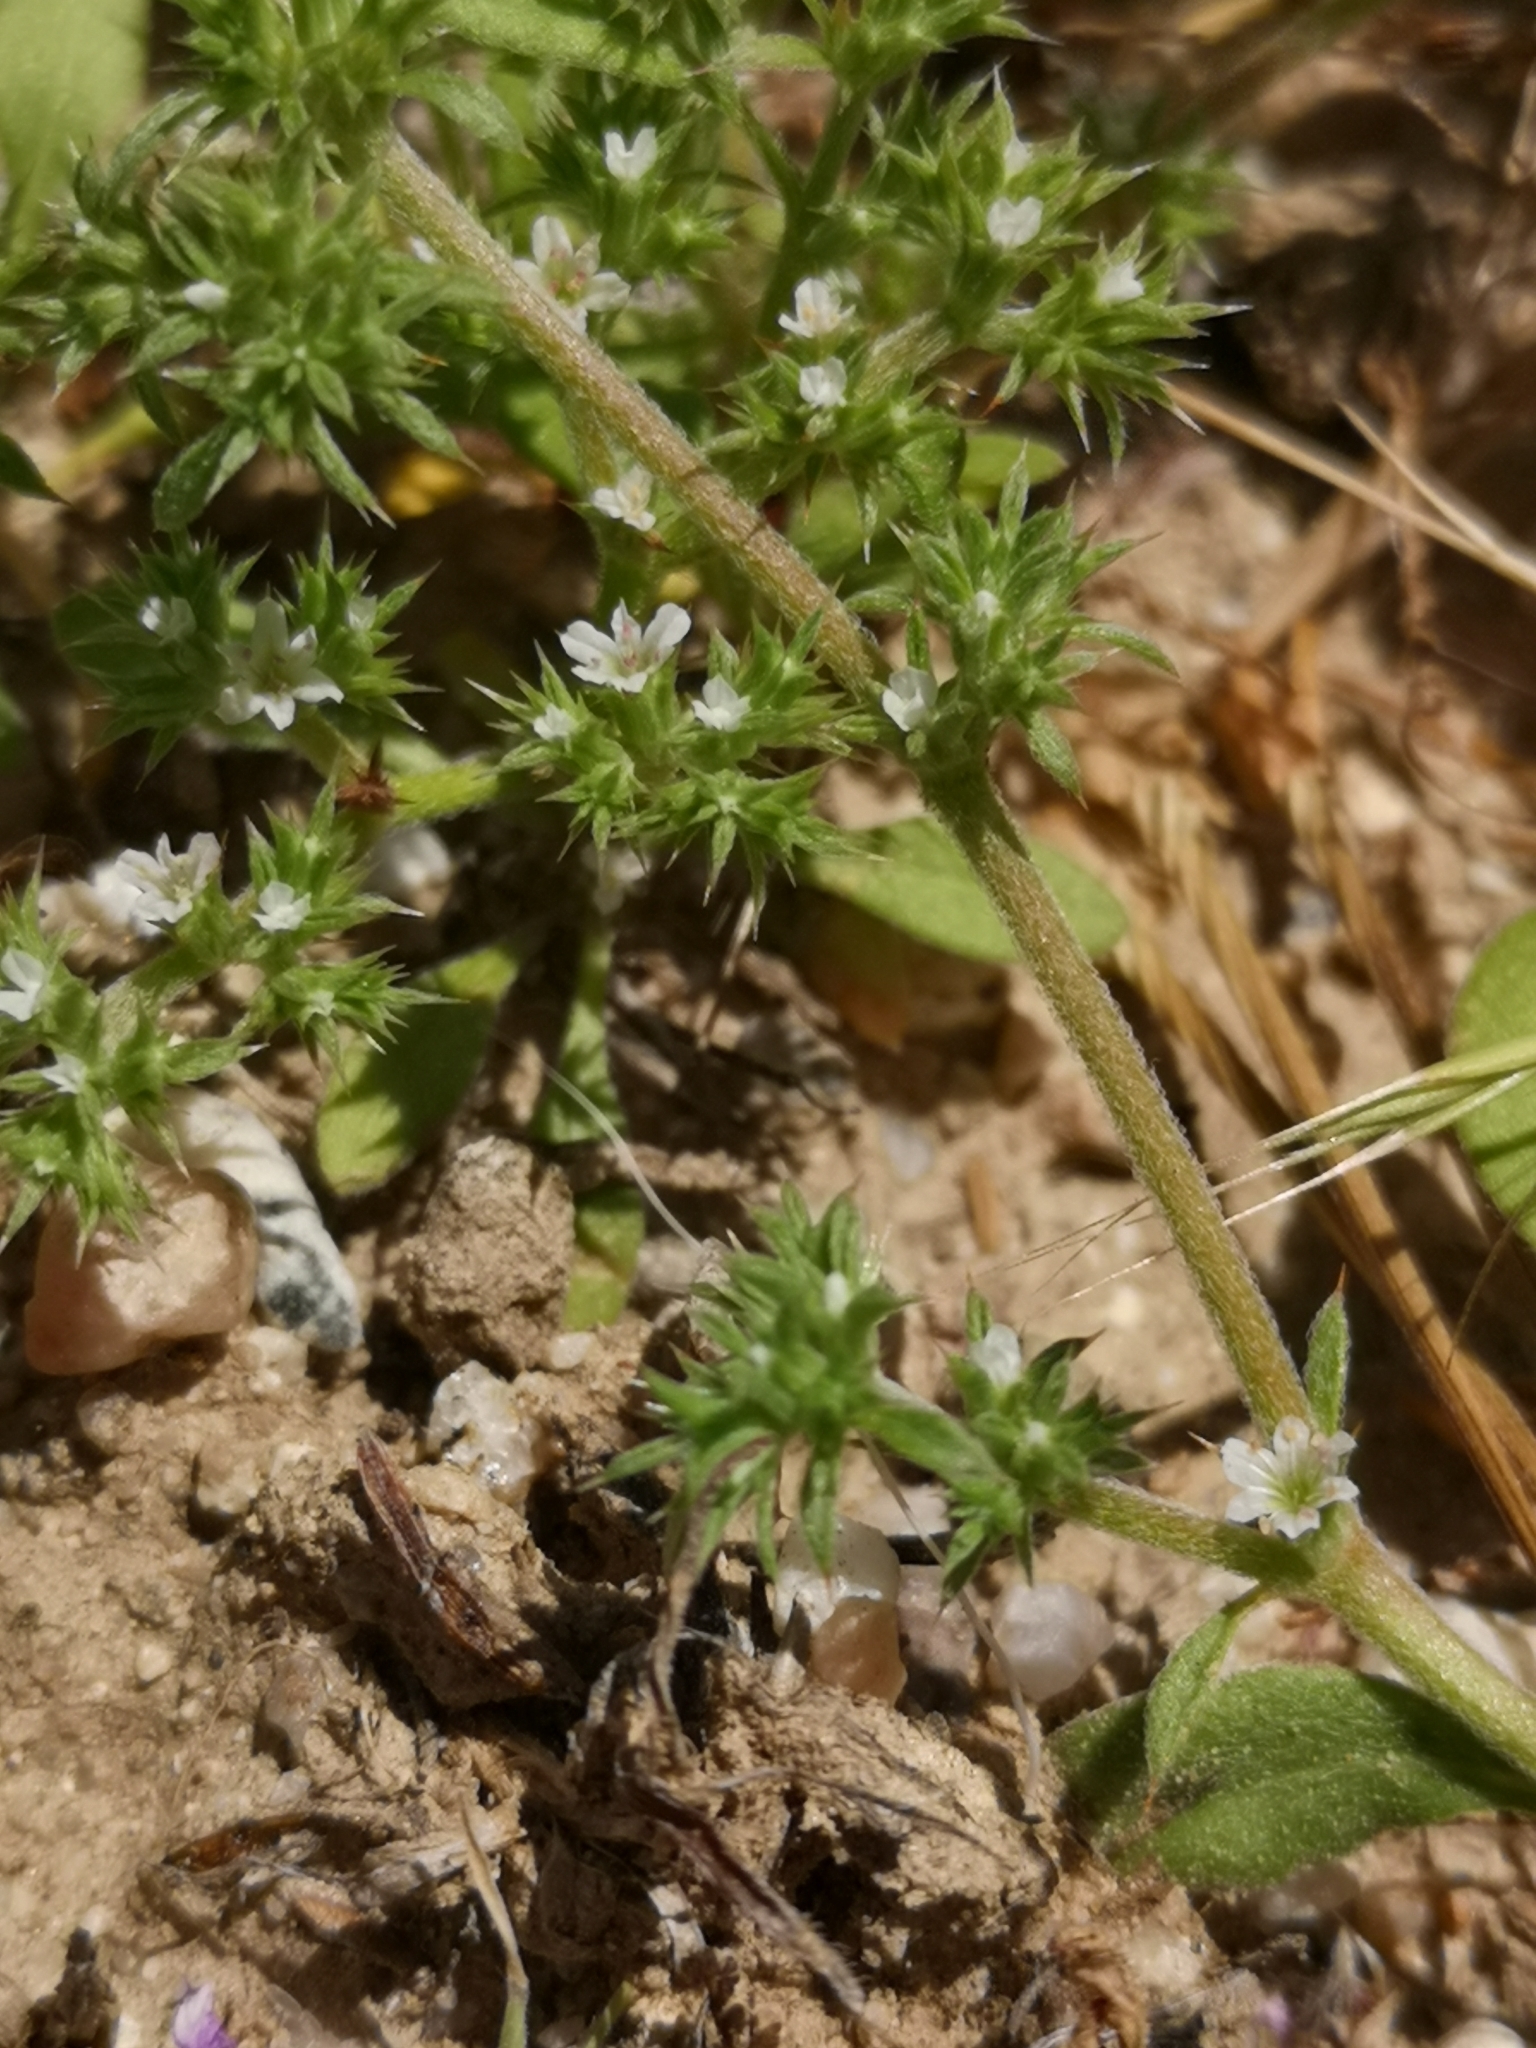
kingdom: Plantae
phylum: Tracheophyta
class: Magnoliopsida
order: Caryophyllales
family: Polygonaceae
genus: Chorizanthe
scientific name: Chorizanthe parryi
